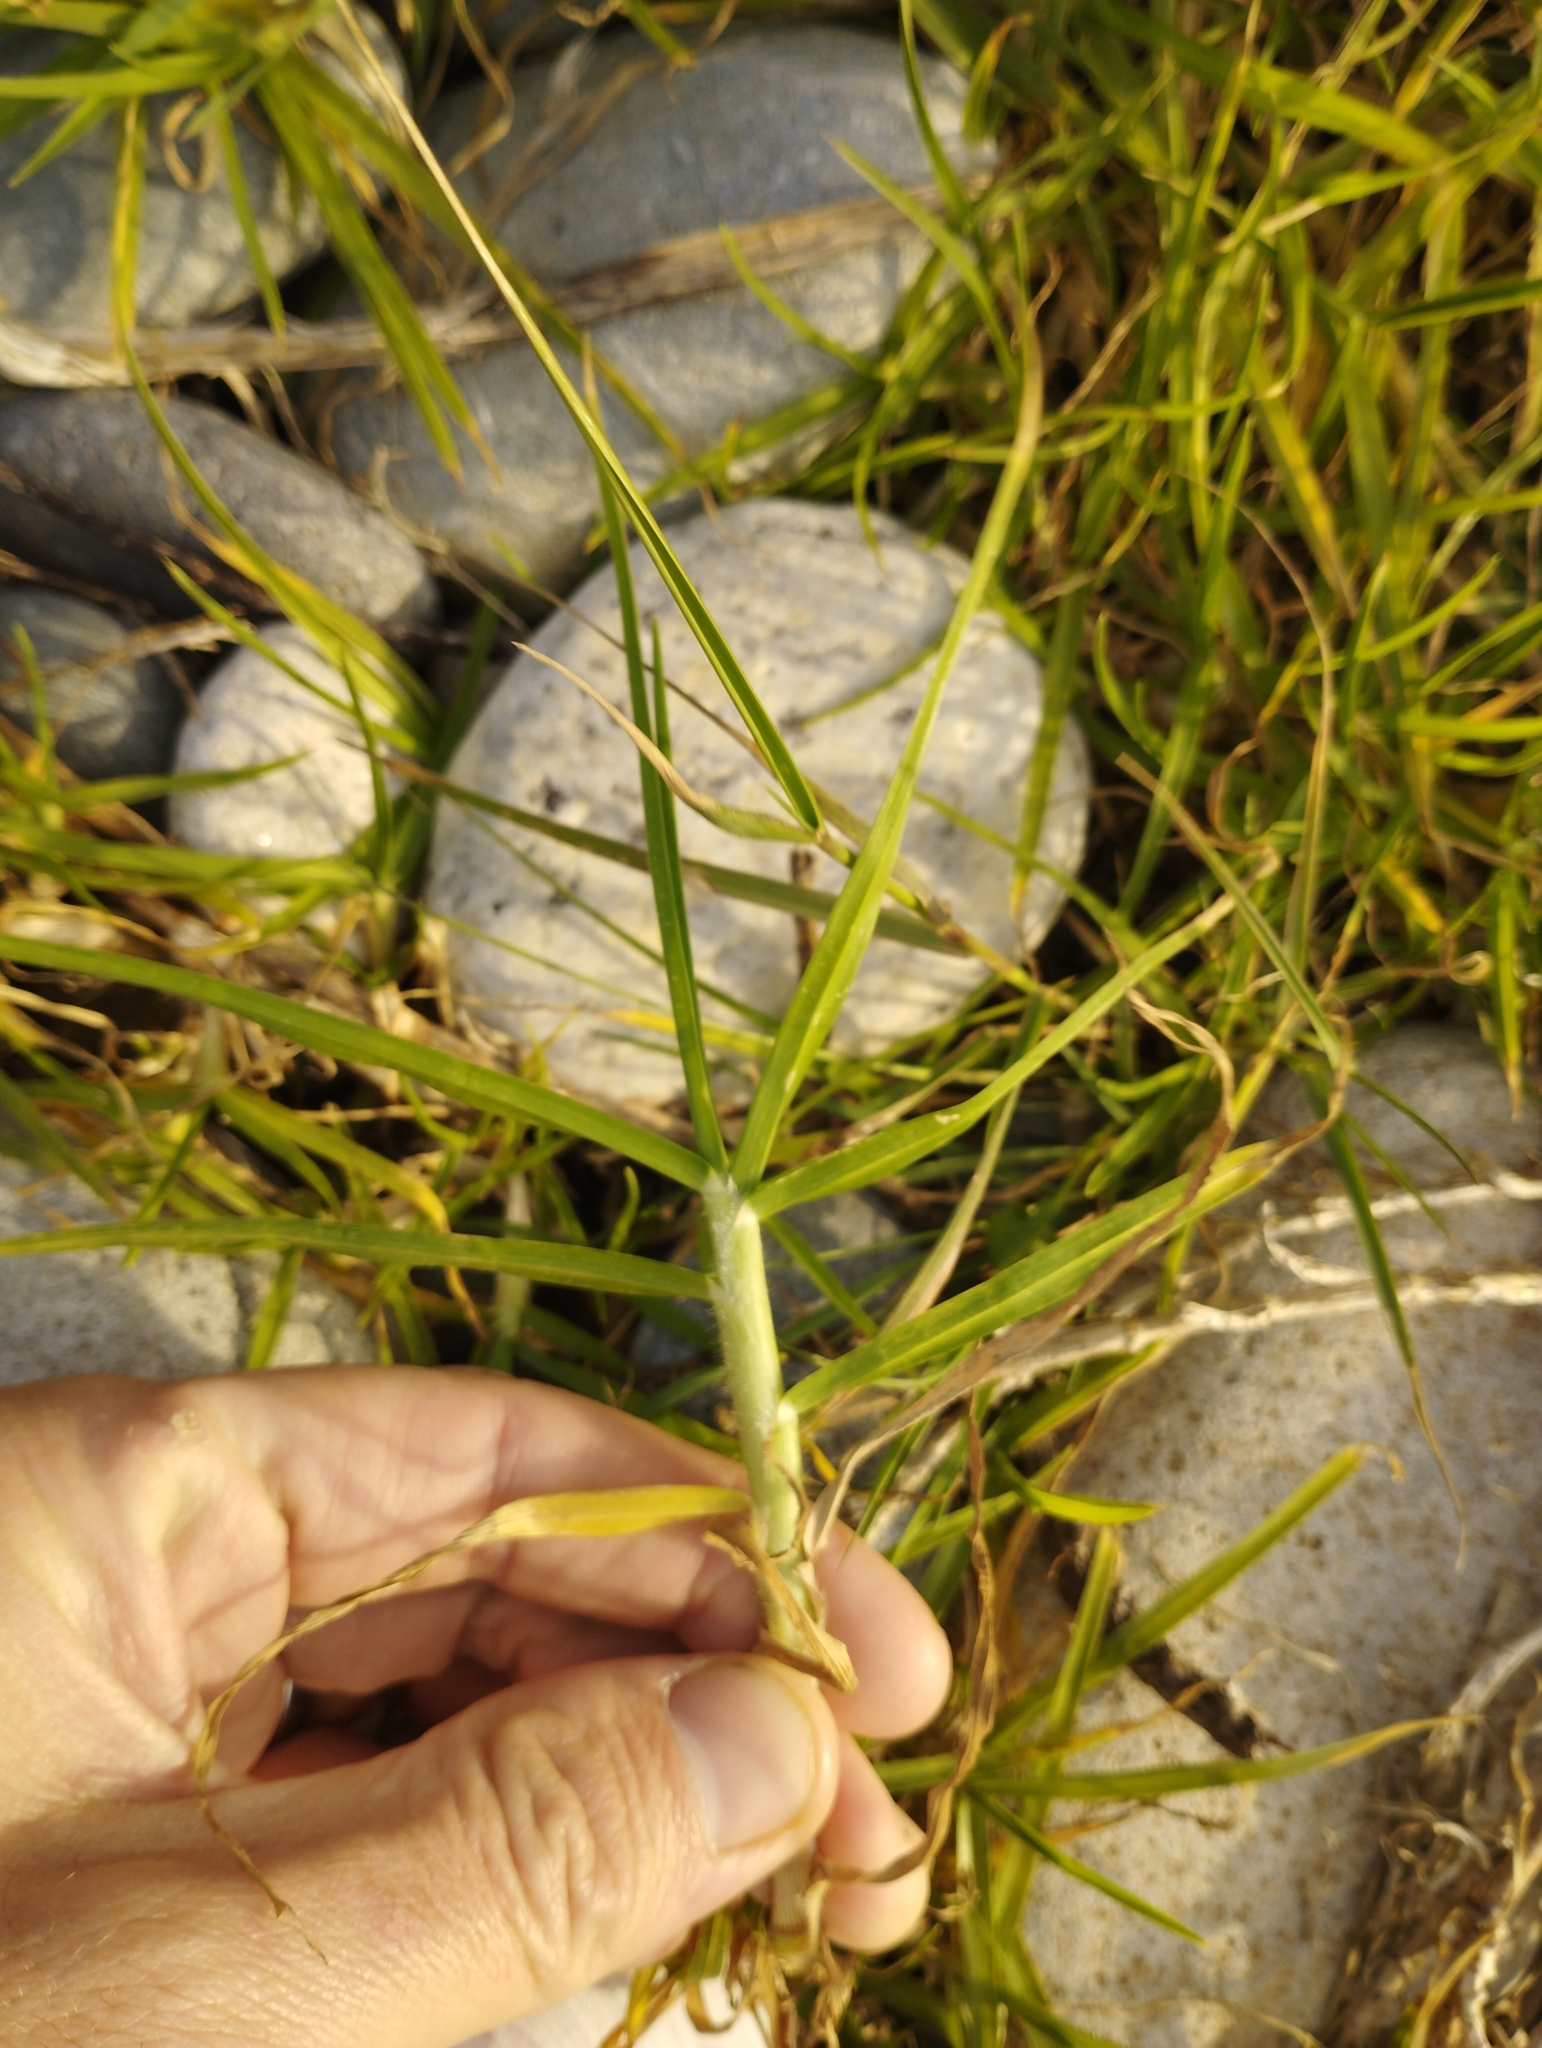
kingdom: Plantae
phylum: Tracheophyta
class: Liliopsida
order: Poales
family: Poaceae
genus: Cenchrus
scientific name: Cenchrus clandestinus
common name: Kikuyugrass
